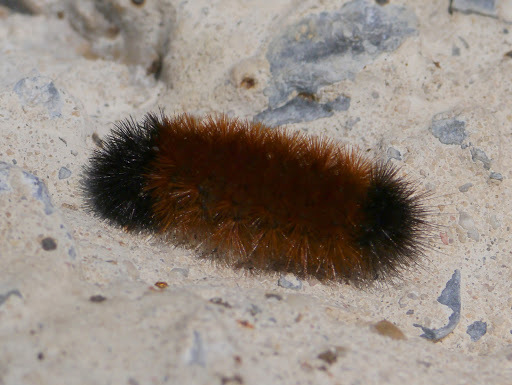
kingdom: Animalia
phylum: Arthropoda
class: Insecta
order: Lepidoptera
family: Erebidae
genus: Pyrrharctia
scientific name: Pyrrharctia isabella
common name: Isabella tiger moth
